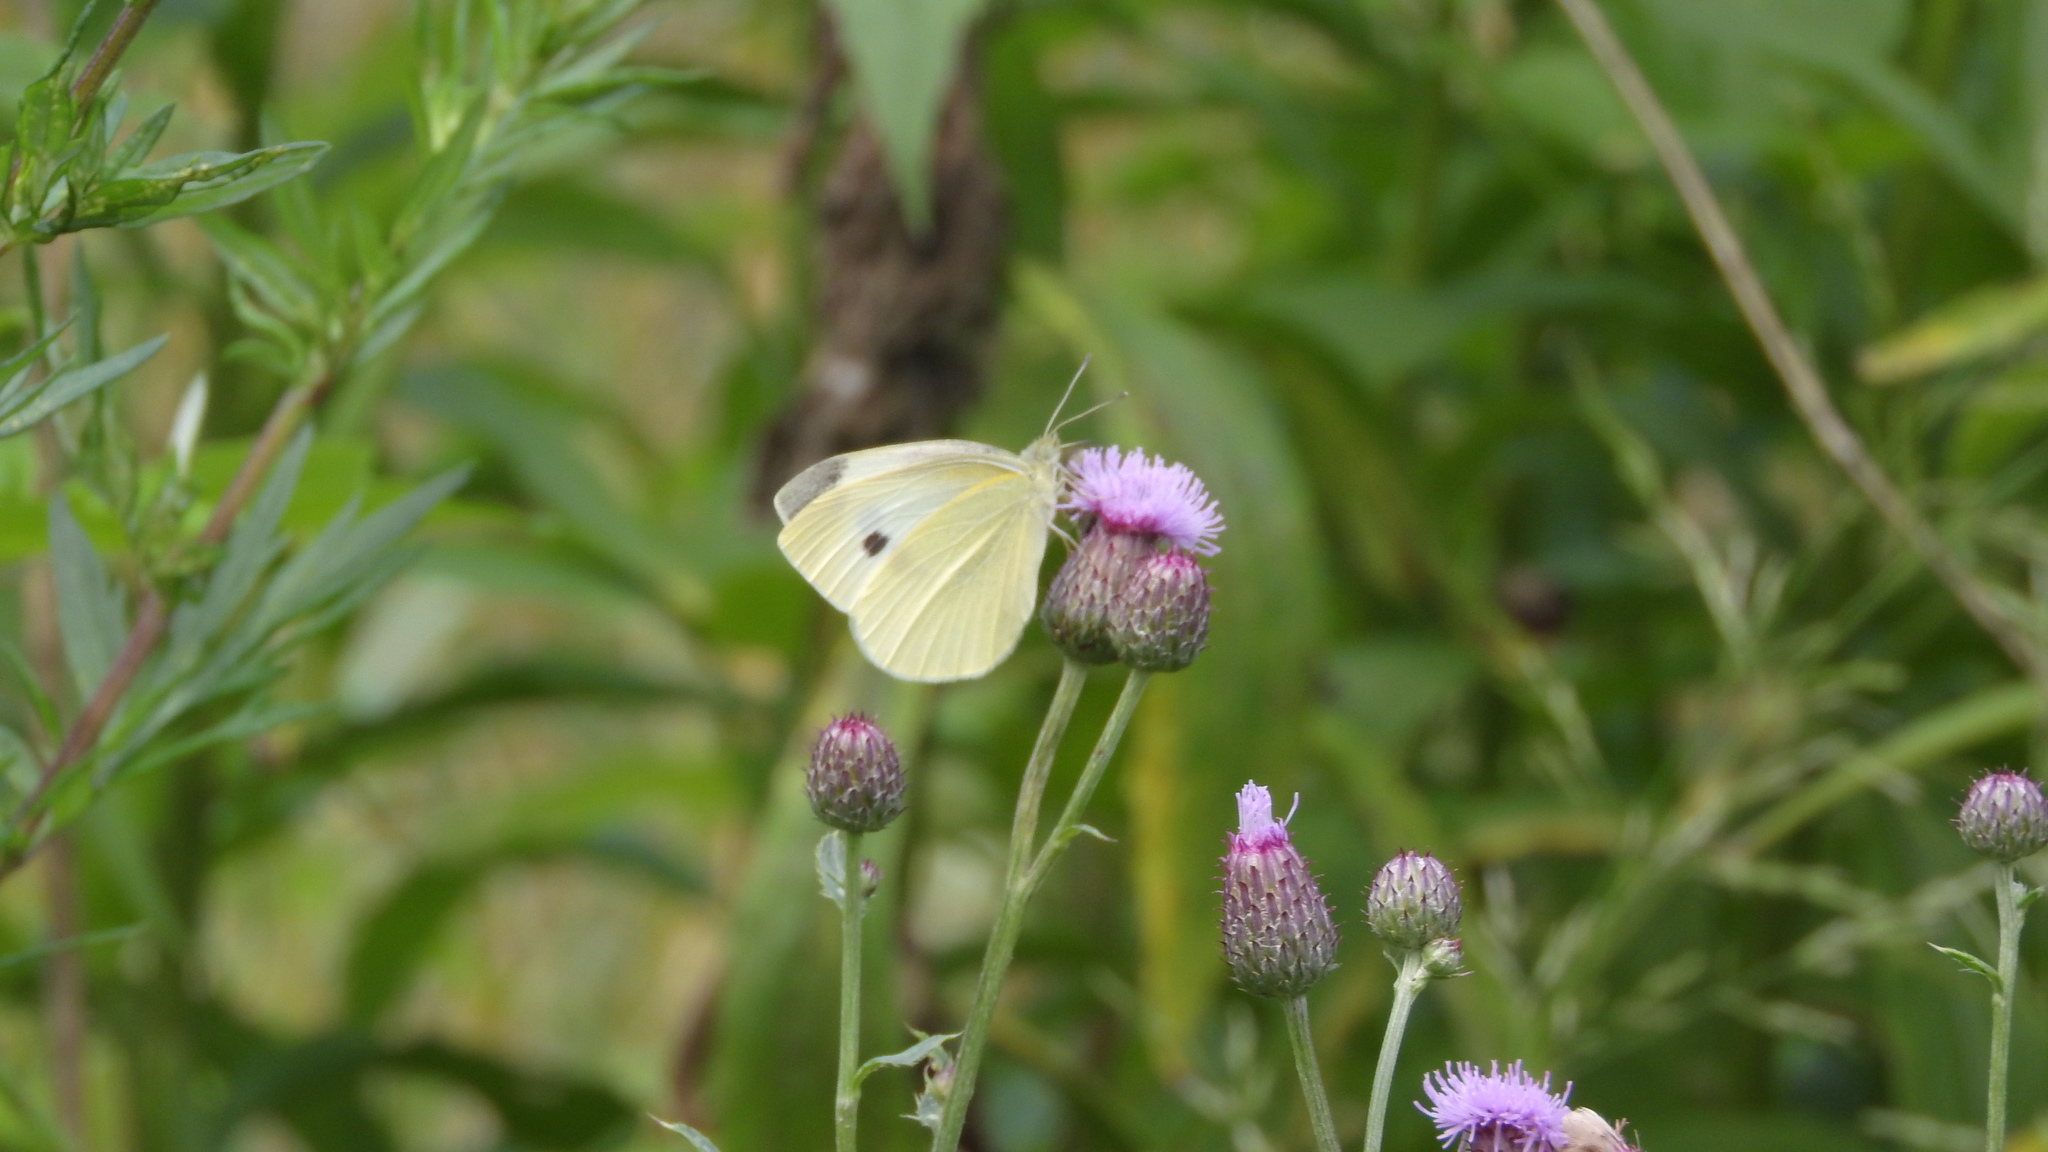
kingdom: Animalia
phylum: Arthropoda
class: Insecta
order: Lepidoptera
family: Pieridae
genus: Pieris
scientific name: Pieris rapae
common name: Small white
